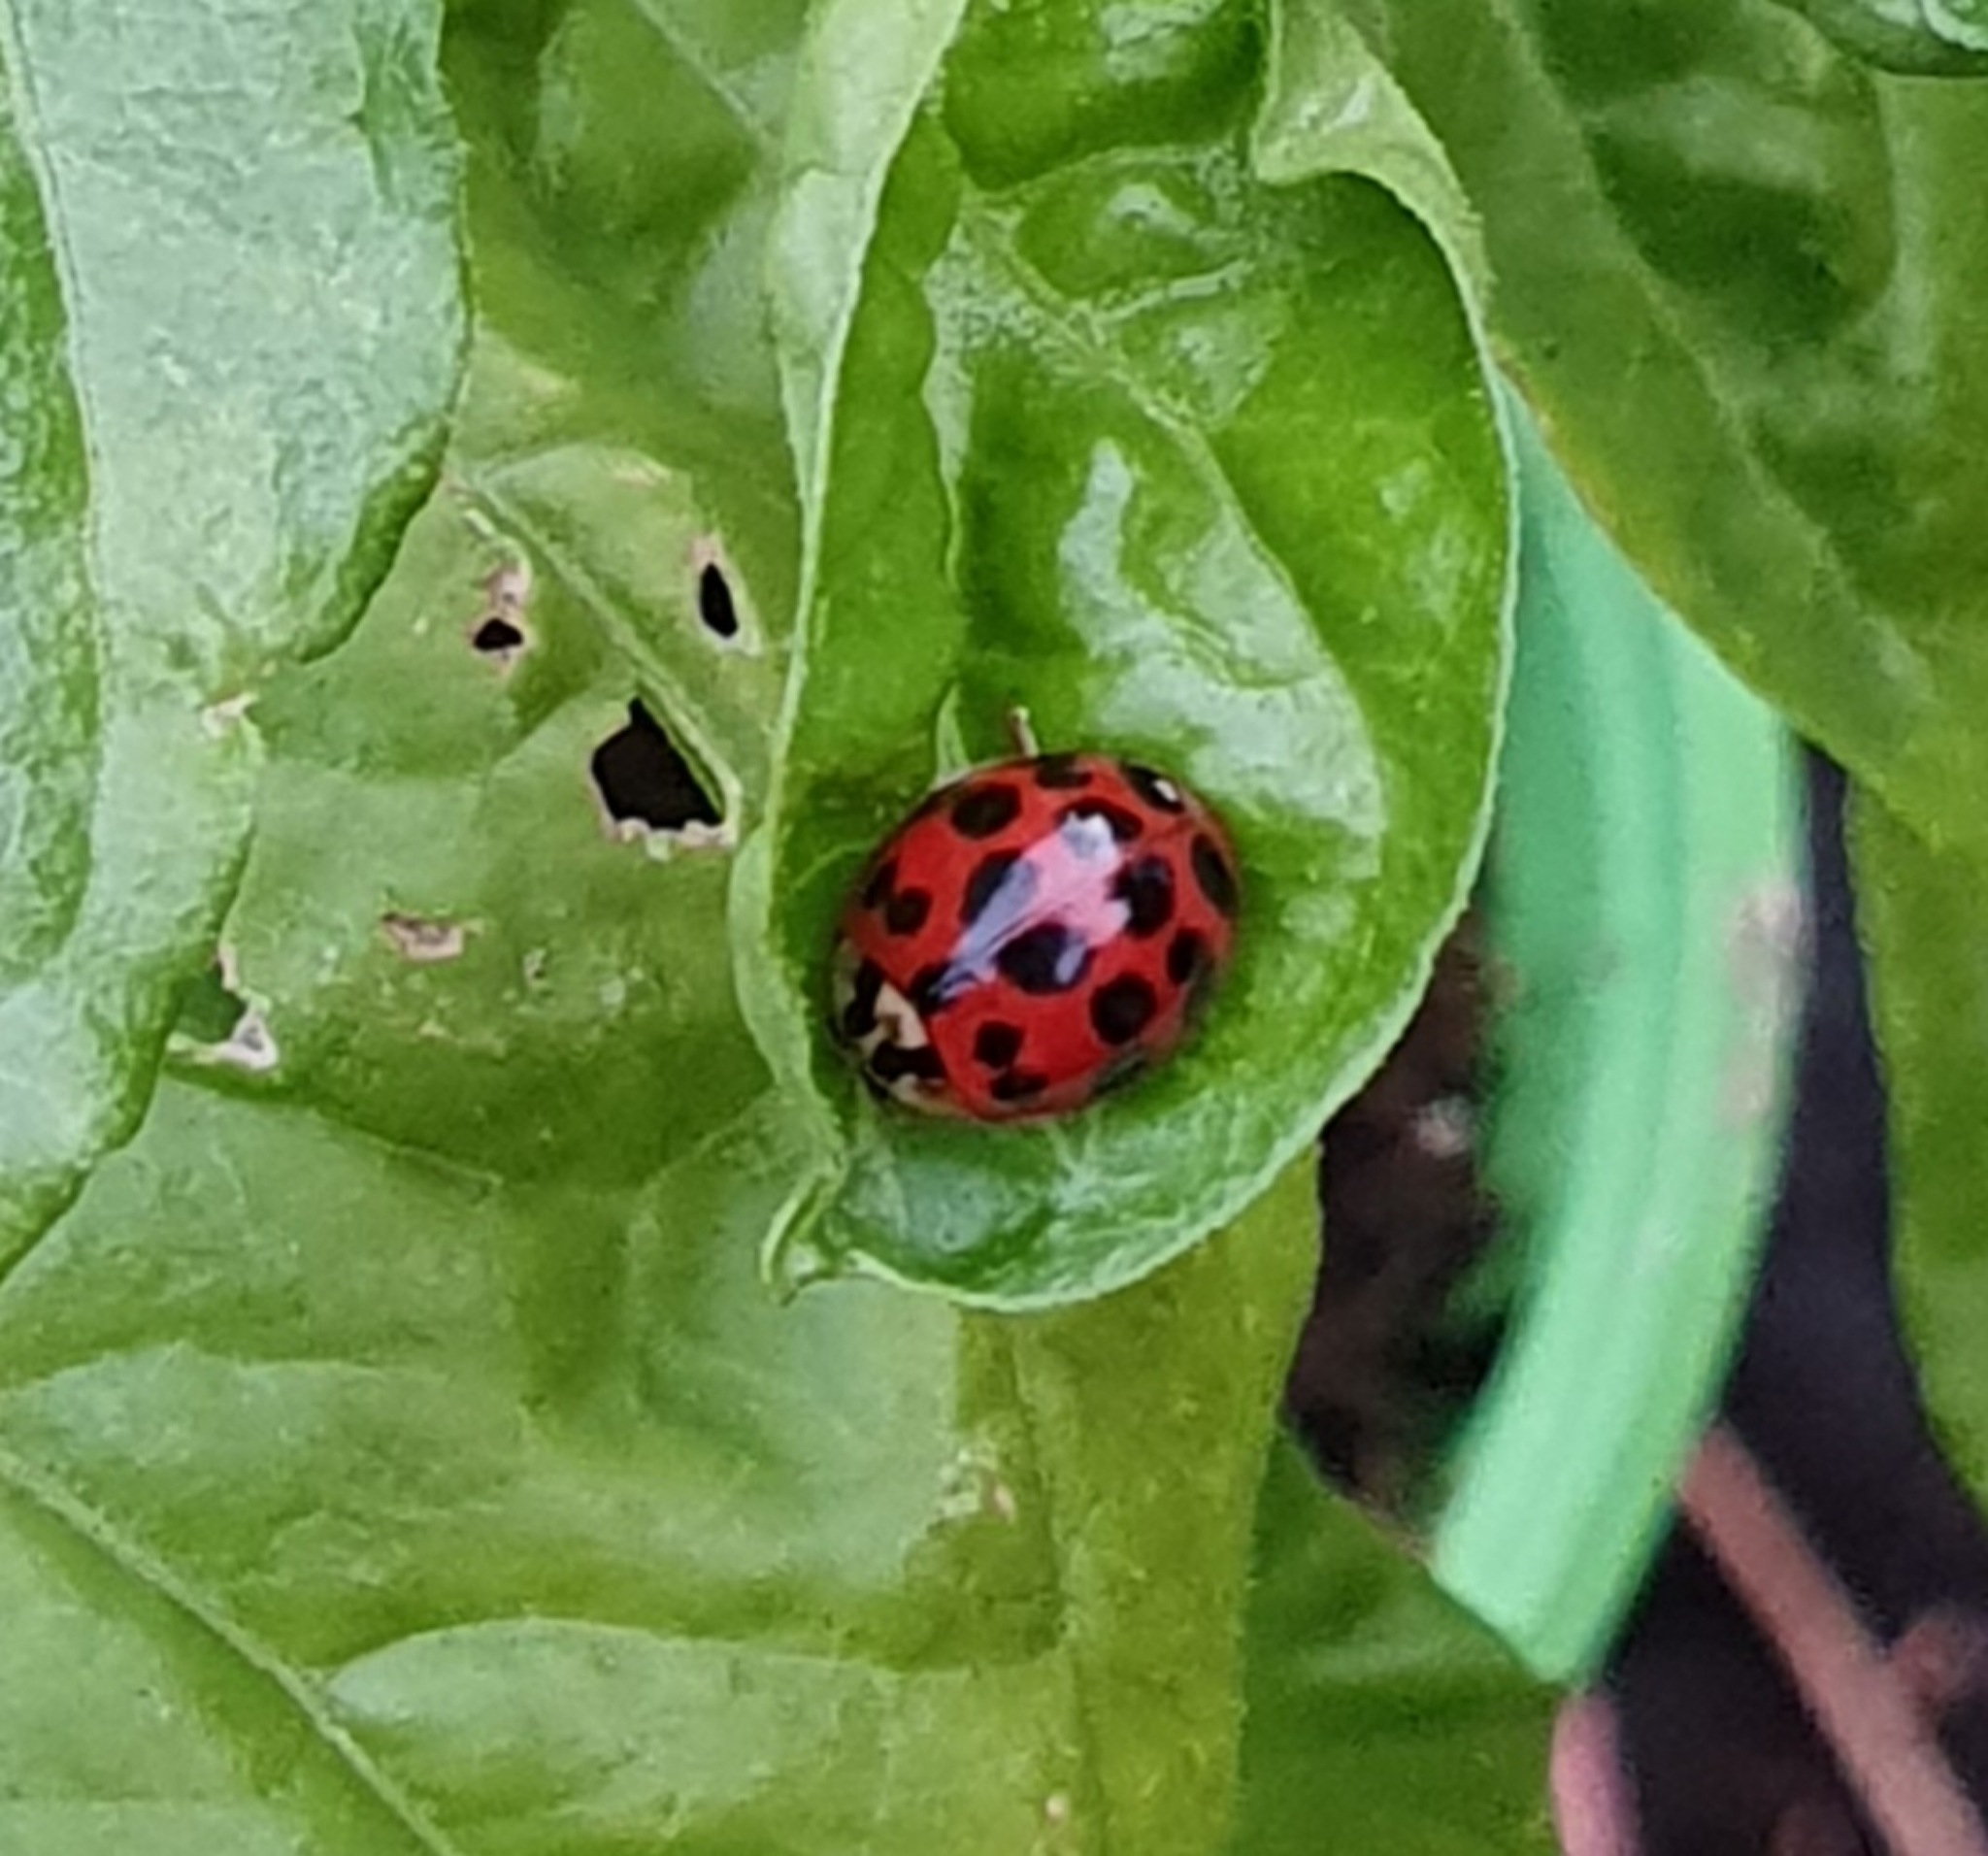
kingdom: Animalia
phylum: Arthropoda
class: Insecta
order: Coleoptera
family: Coccinellidae
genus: Harmonia
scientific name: Harmonia axyridis
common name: Harlequin ladybird
